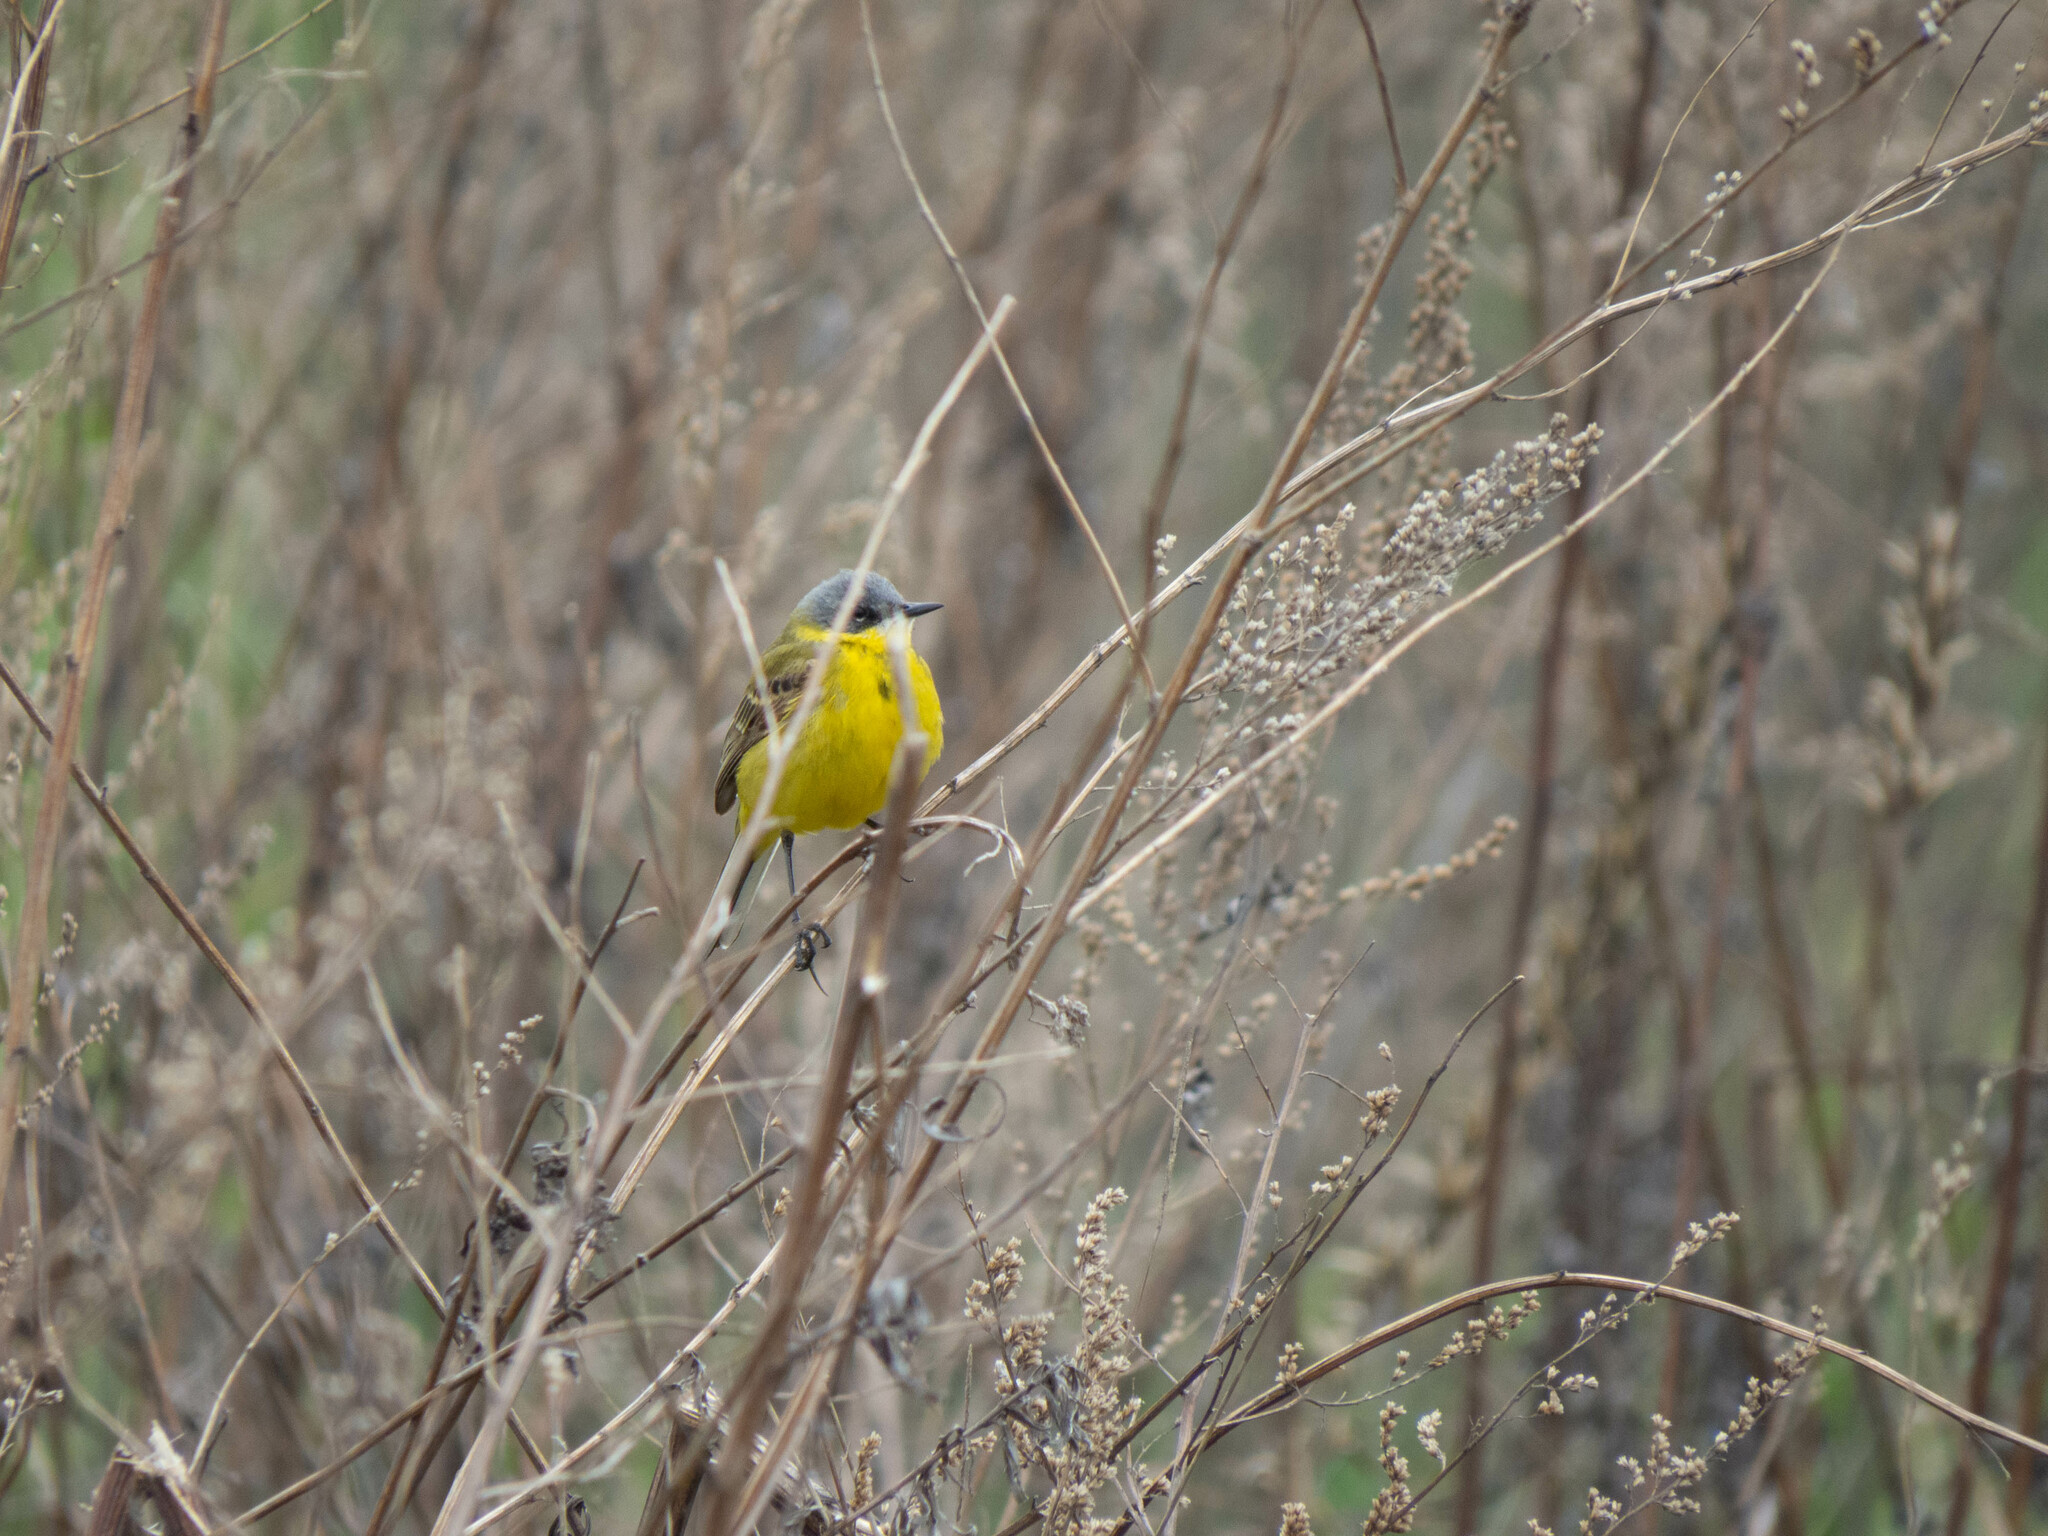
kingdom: Animalia
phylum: Chordata
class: Aves
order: Passeriformes
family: Motacillidae
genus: Motacilla
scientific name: Motacilla flava
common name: Western yellow wagtail
